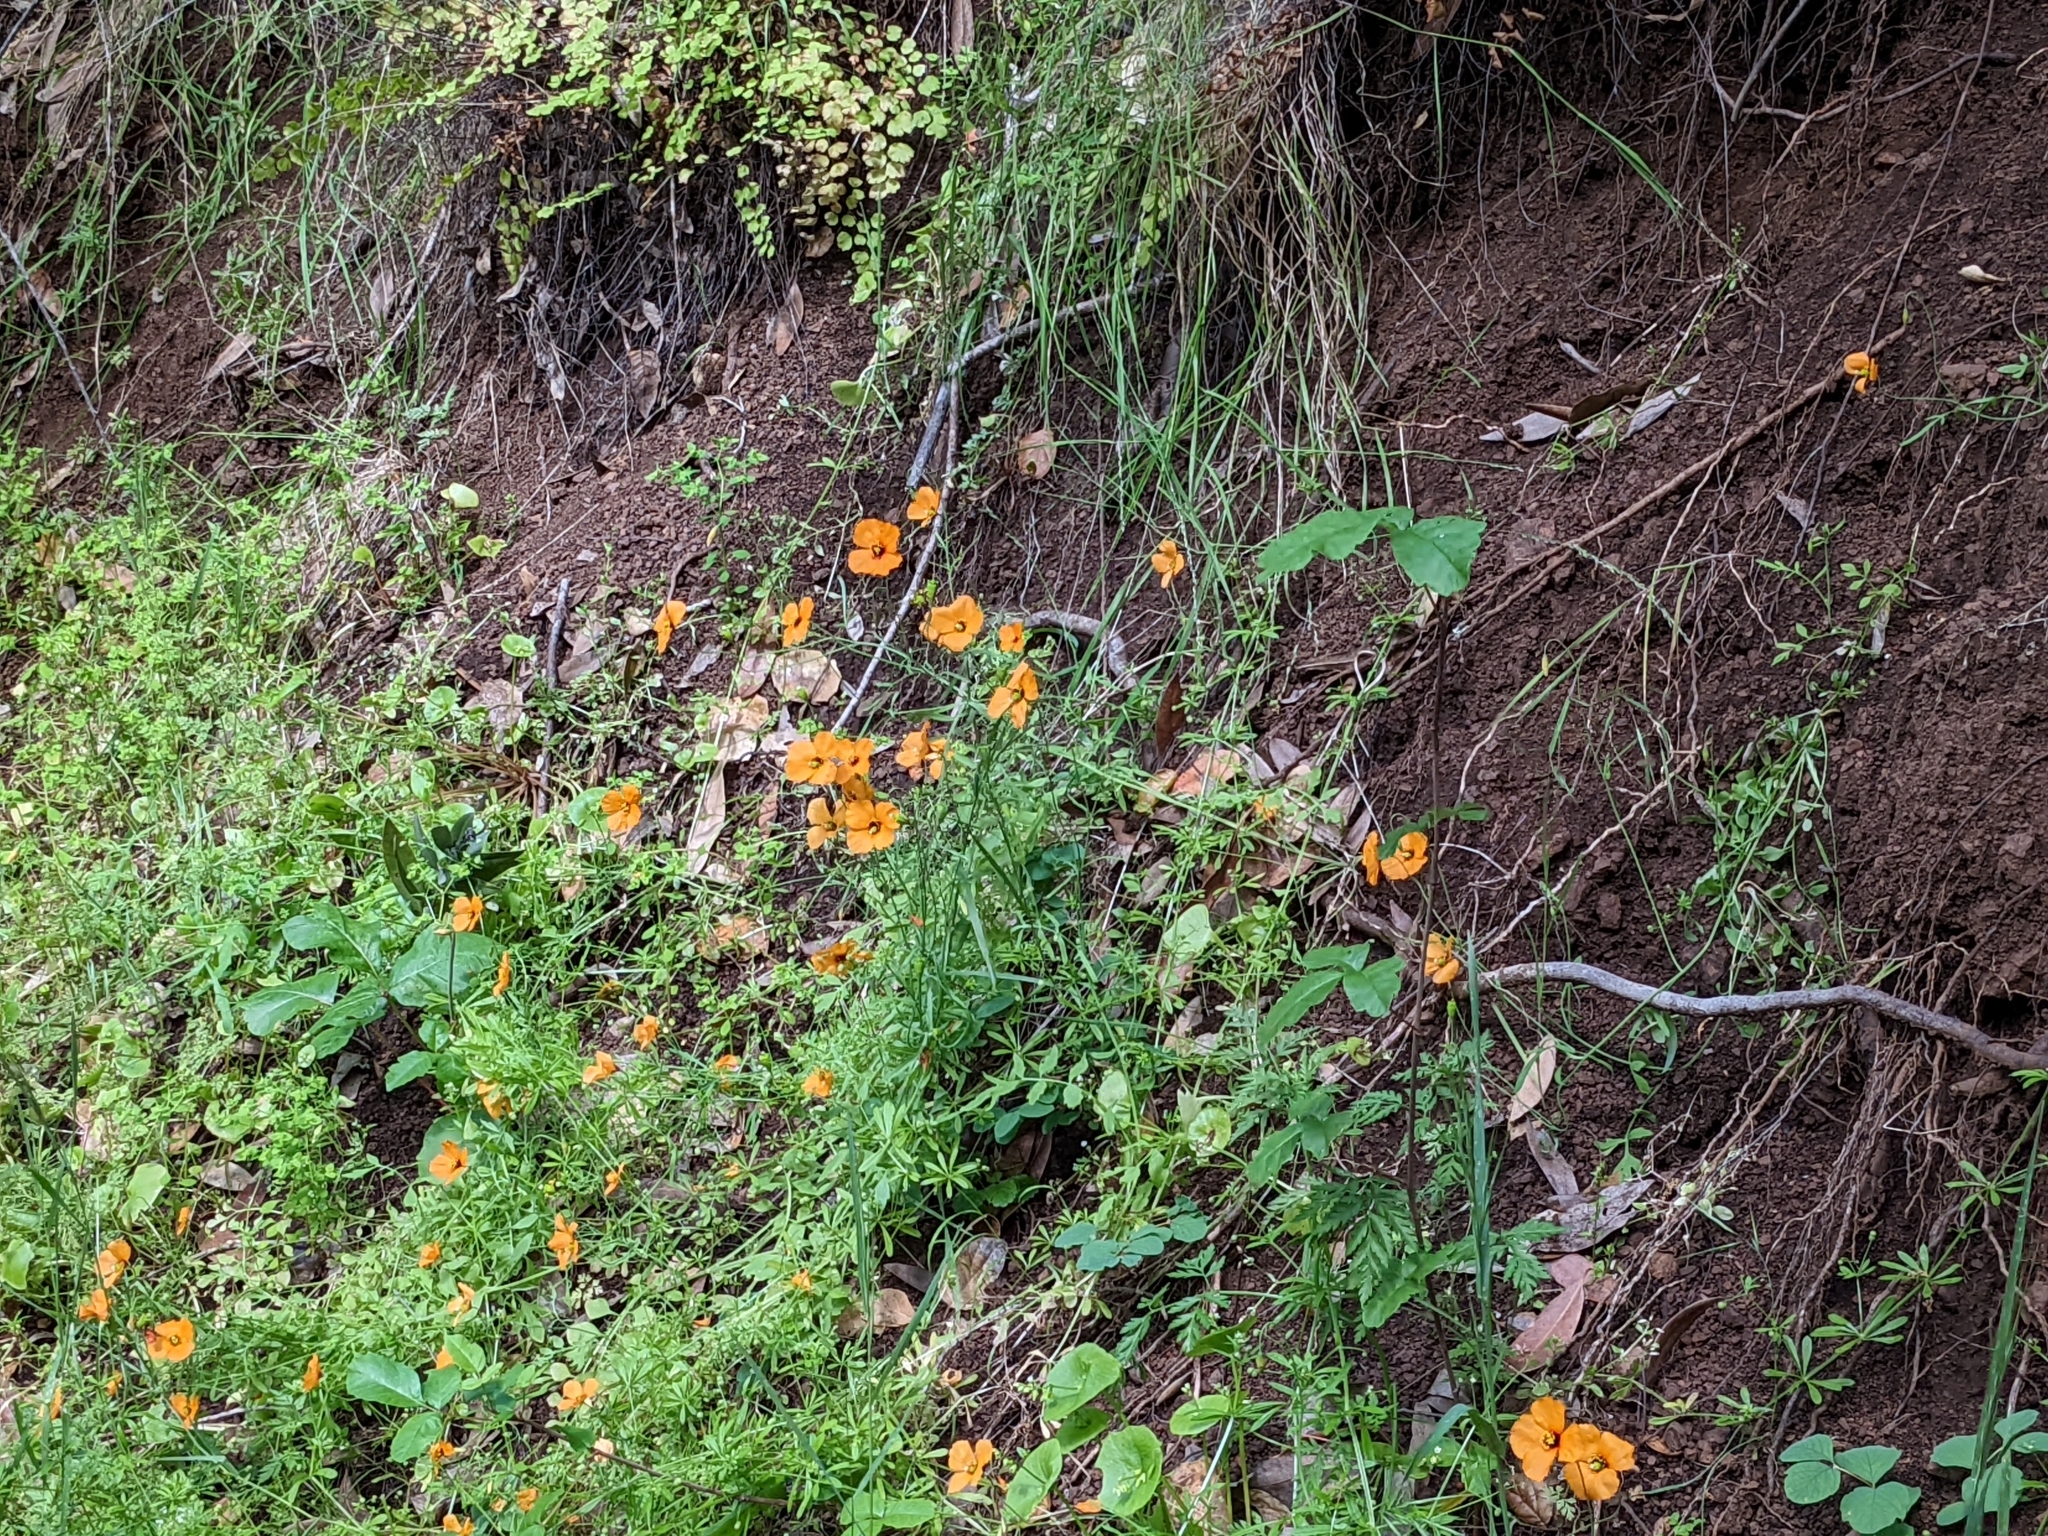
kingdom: Plantae
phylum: Tracheophyta
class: Magnoliopsida
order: Ranunculales
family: Papaveraceae
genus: Stylomecon
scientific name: Stylomecon heterophylla
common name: Flaming-poppy
